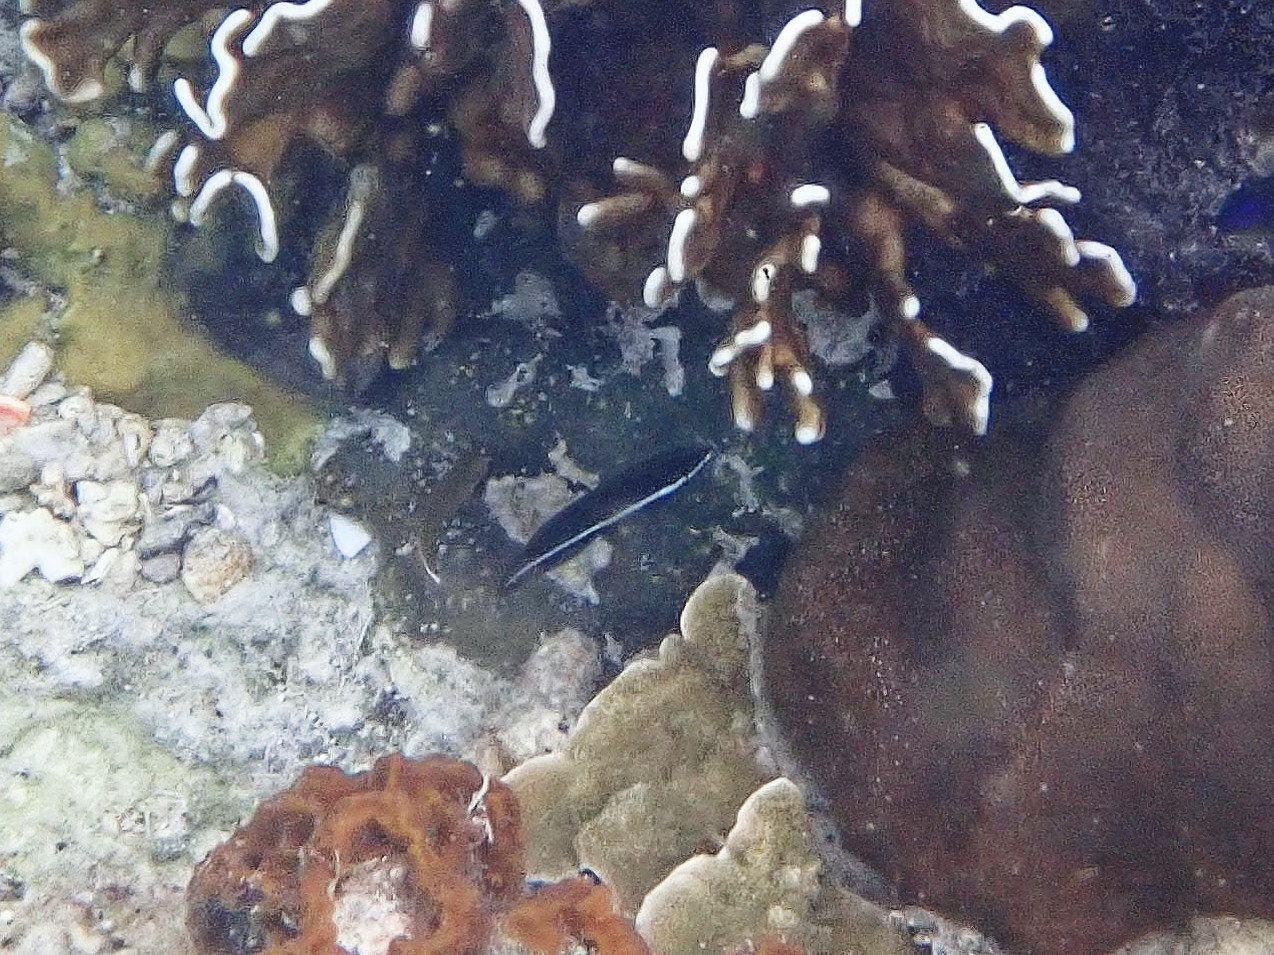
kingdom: Animalia
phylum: Chordata
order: Perciformes
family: Labridae
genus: Labrichthys
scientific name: Labrichthys unilineatus
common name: Onelined wrasse
